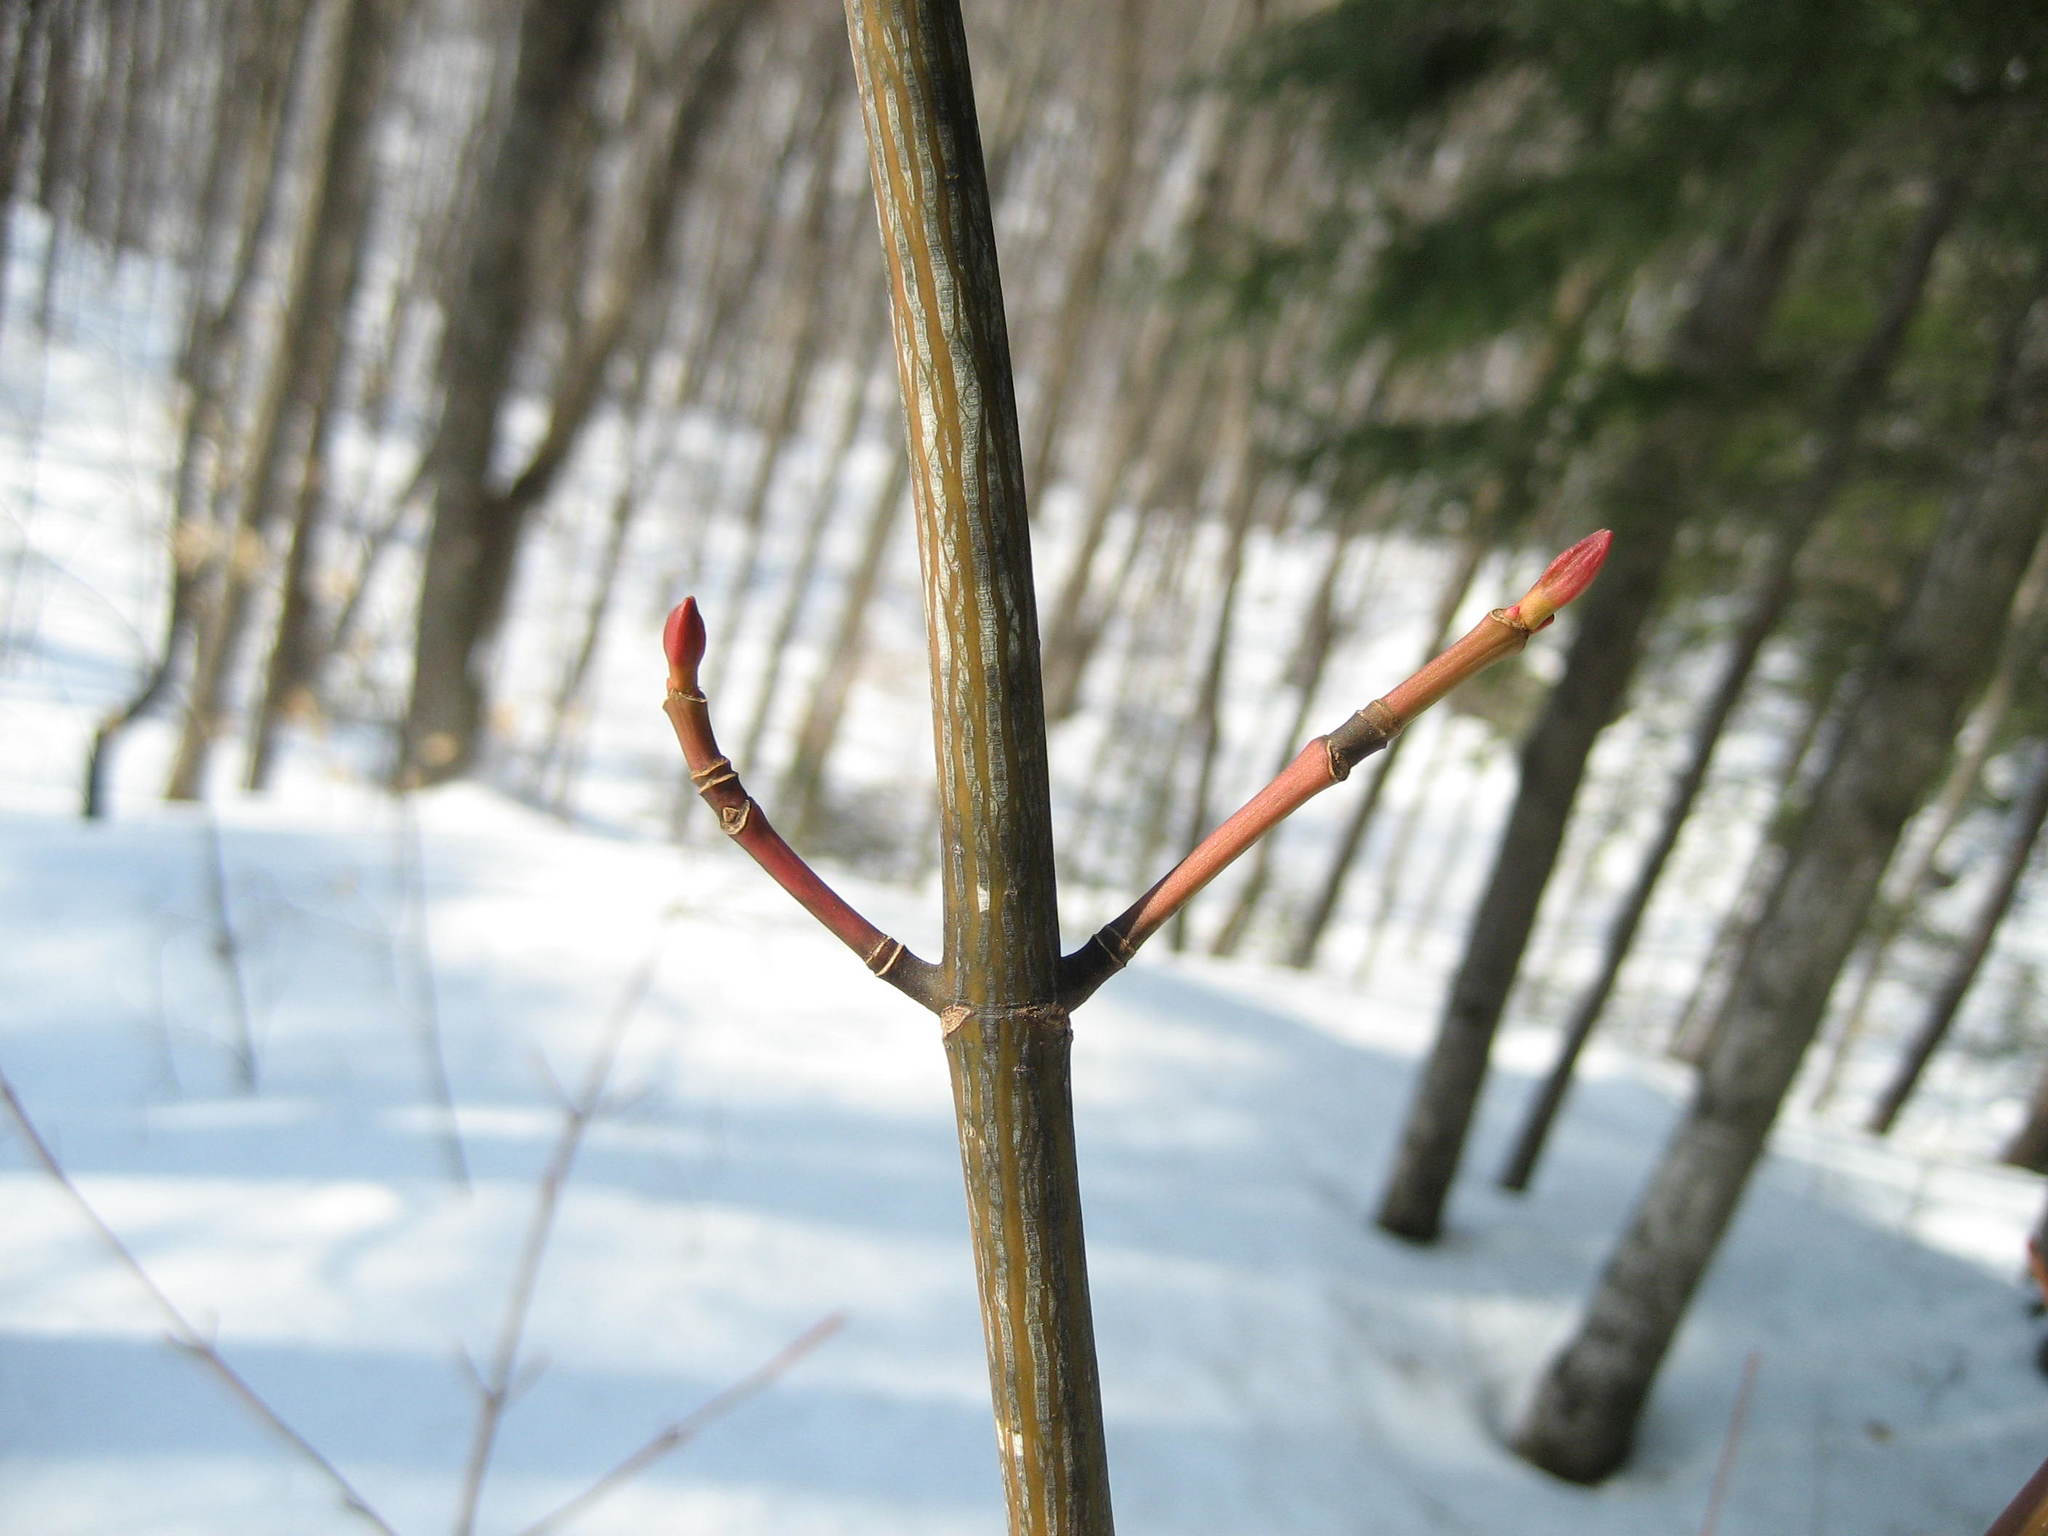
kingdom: Plantae
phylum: Tracheophyta
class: Magnoliopsida
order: Sapindales
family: Sapindaceae
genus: Acer
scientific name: Acer pensylvanicum
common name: Moosewood
